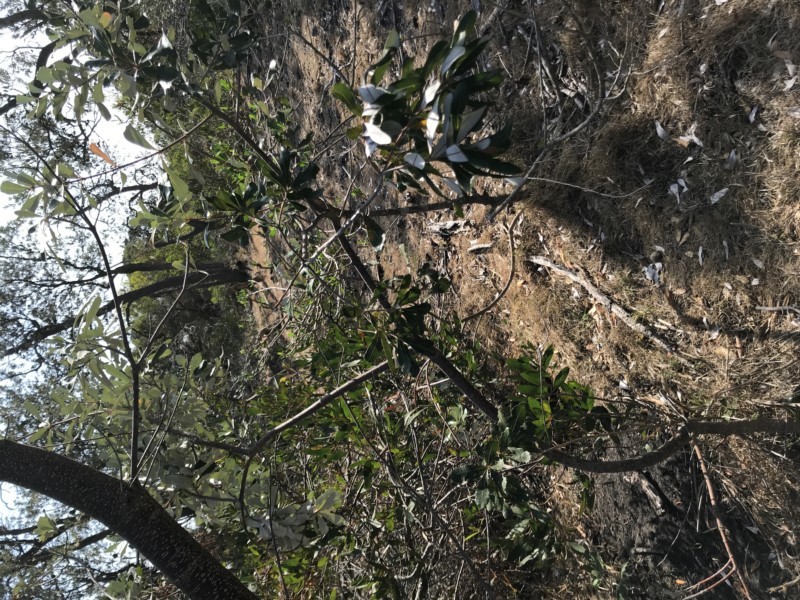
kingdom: Plantae
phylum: Tracheophyta
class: Magnoliopsida
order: Proteales
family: Proteaceae
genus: Banksia
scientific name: Banksia integrifolia
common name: White-honeysuckle
